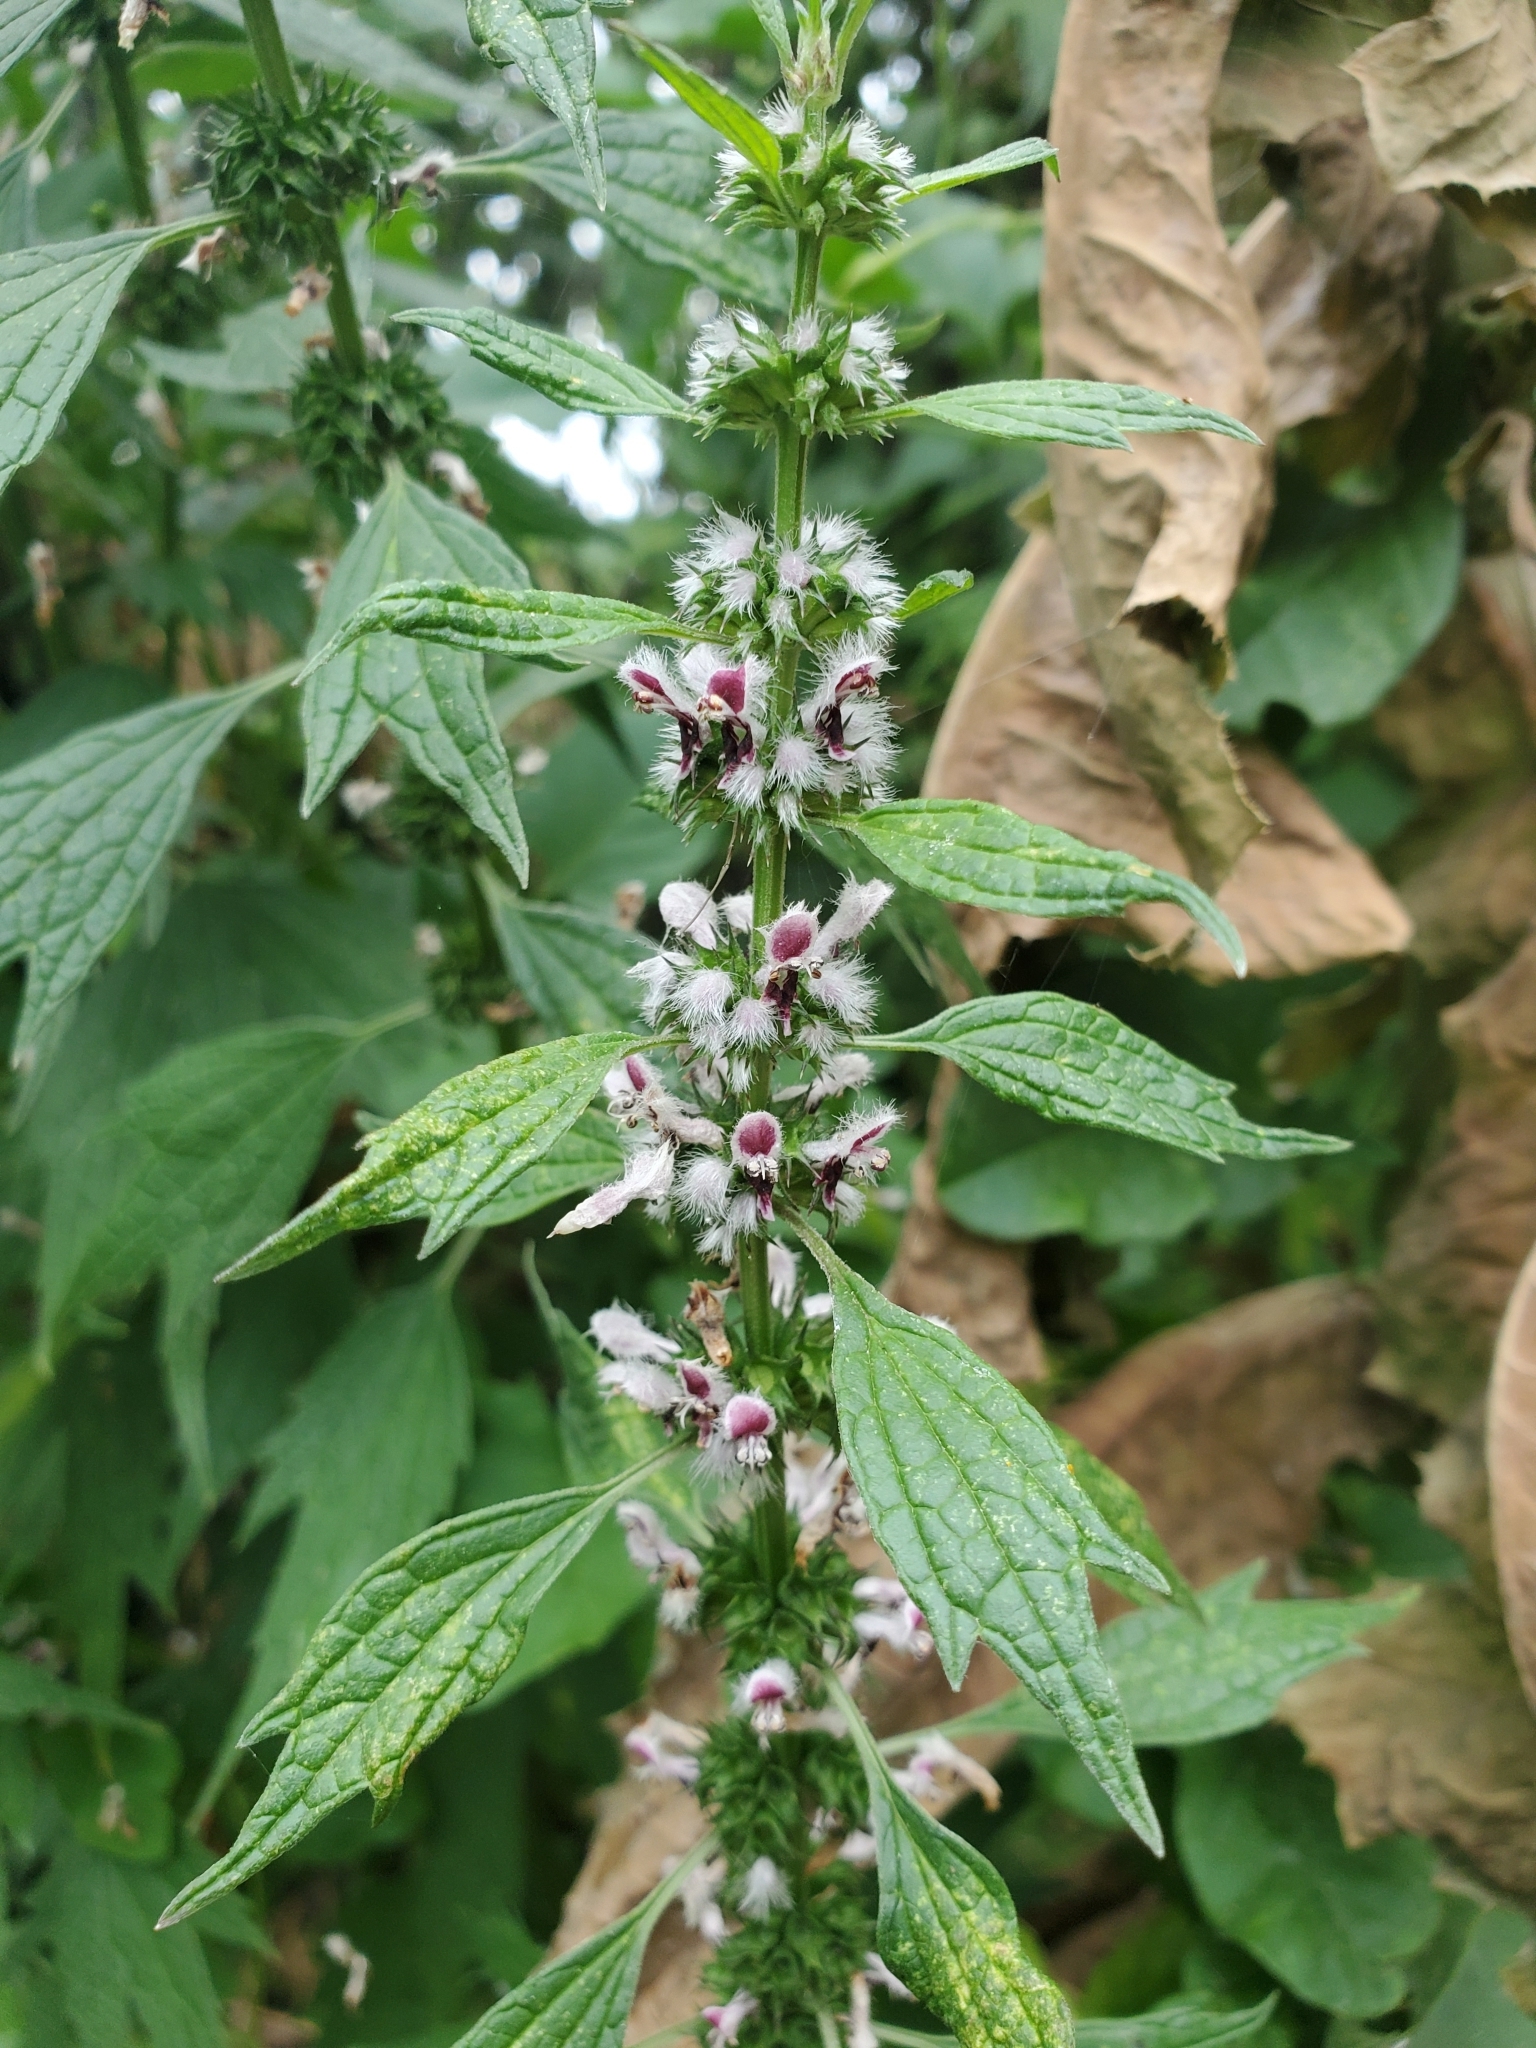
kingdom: Plantae
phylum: Tracheophyta
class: Magnoliopsida
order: Lamiales
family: Lamiaceae
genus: Leonurus
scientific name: Leonurus cardiaca
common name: Motherwort
